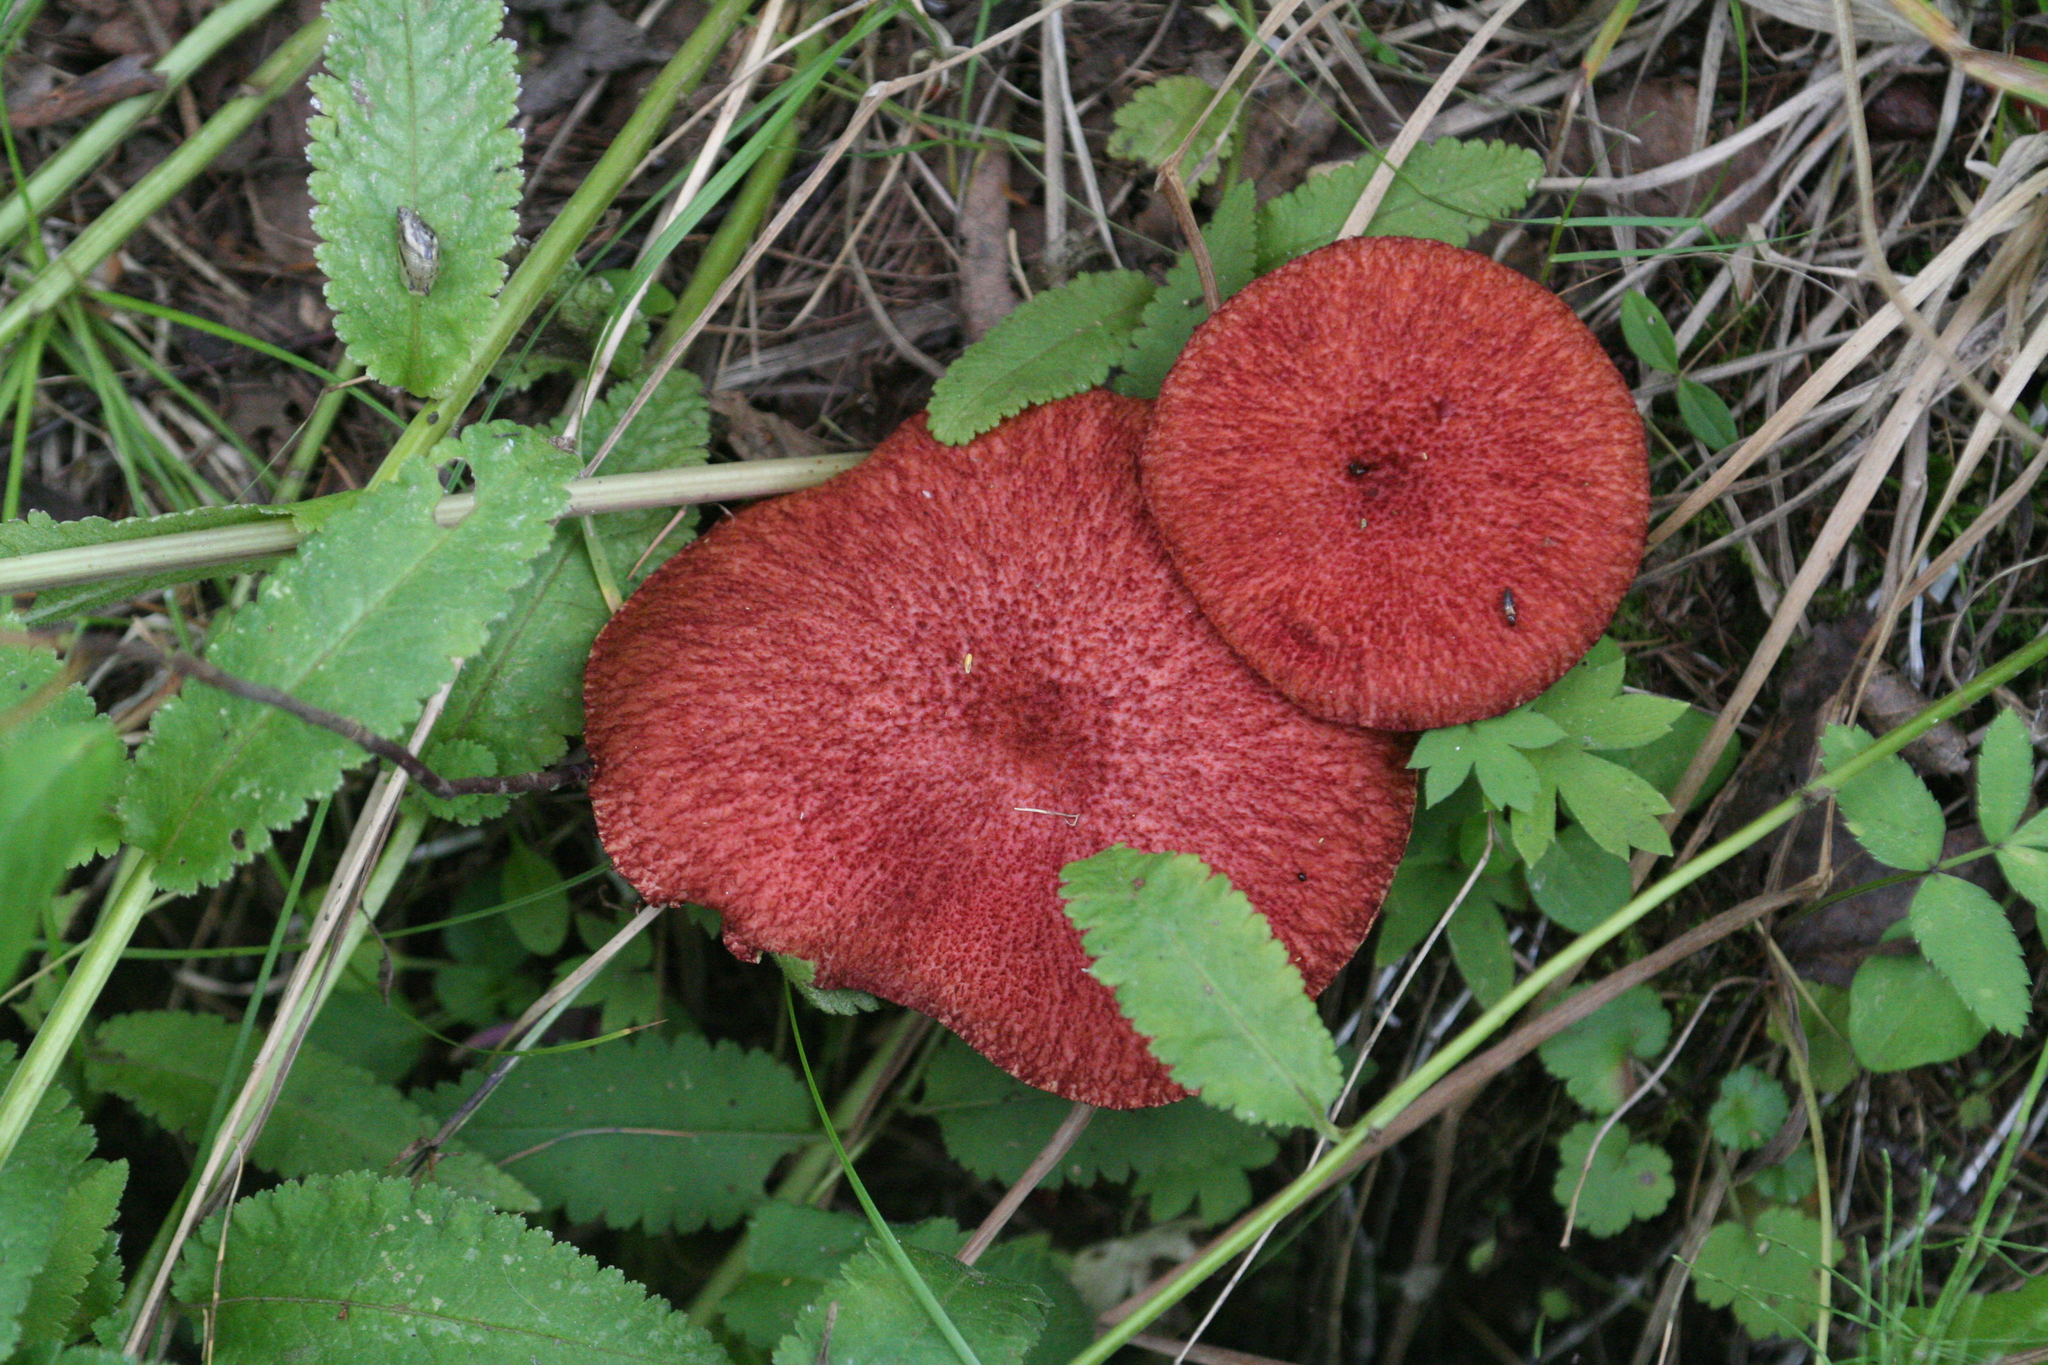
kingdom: Fungi
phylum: Basidiomycota
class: Agaricomycetes
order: Boletales
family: Suillaceae
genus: Boletinus
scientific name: Boletinus asiaticus
